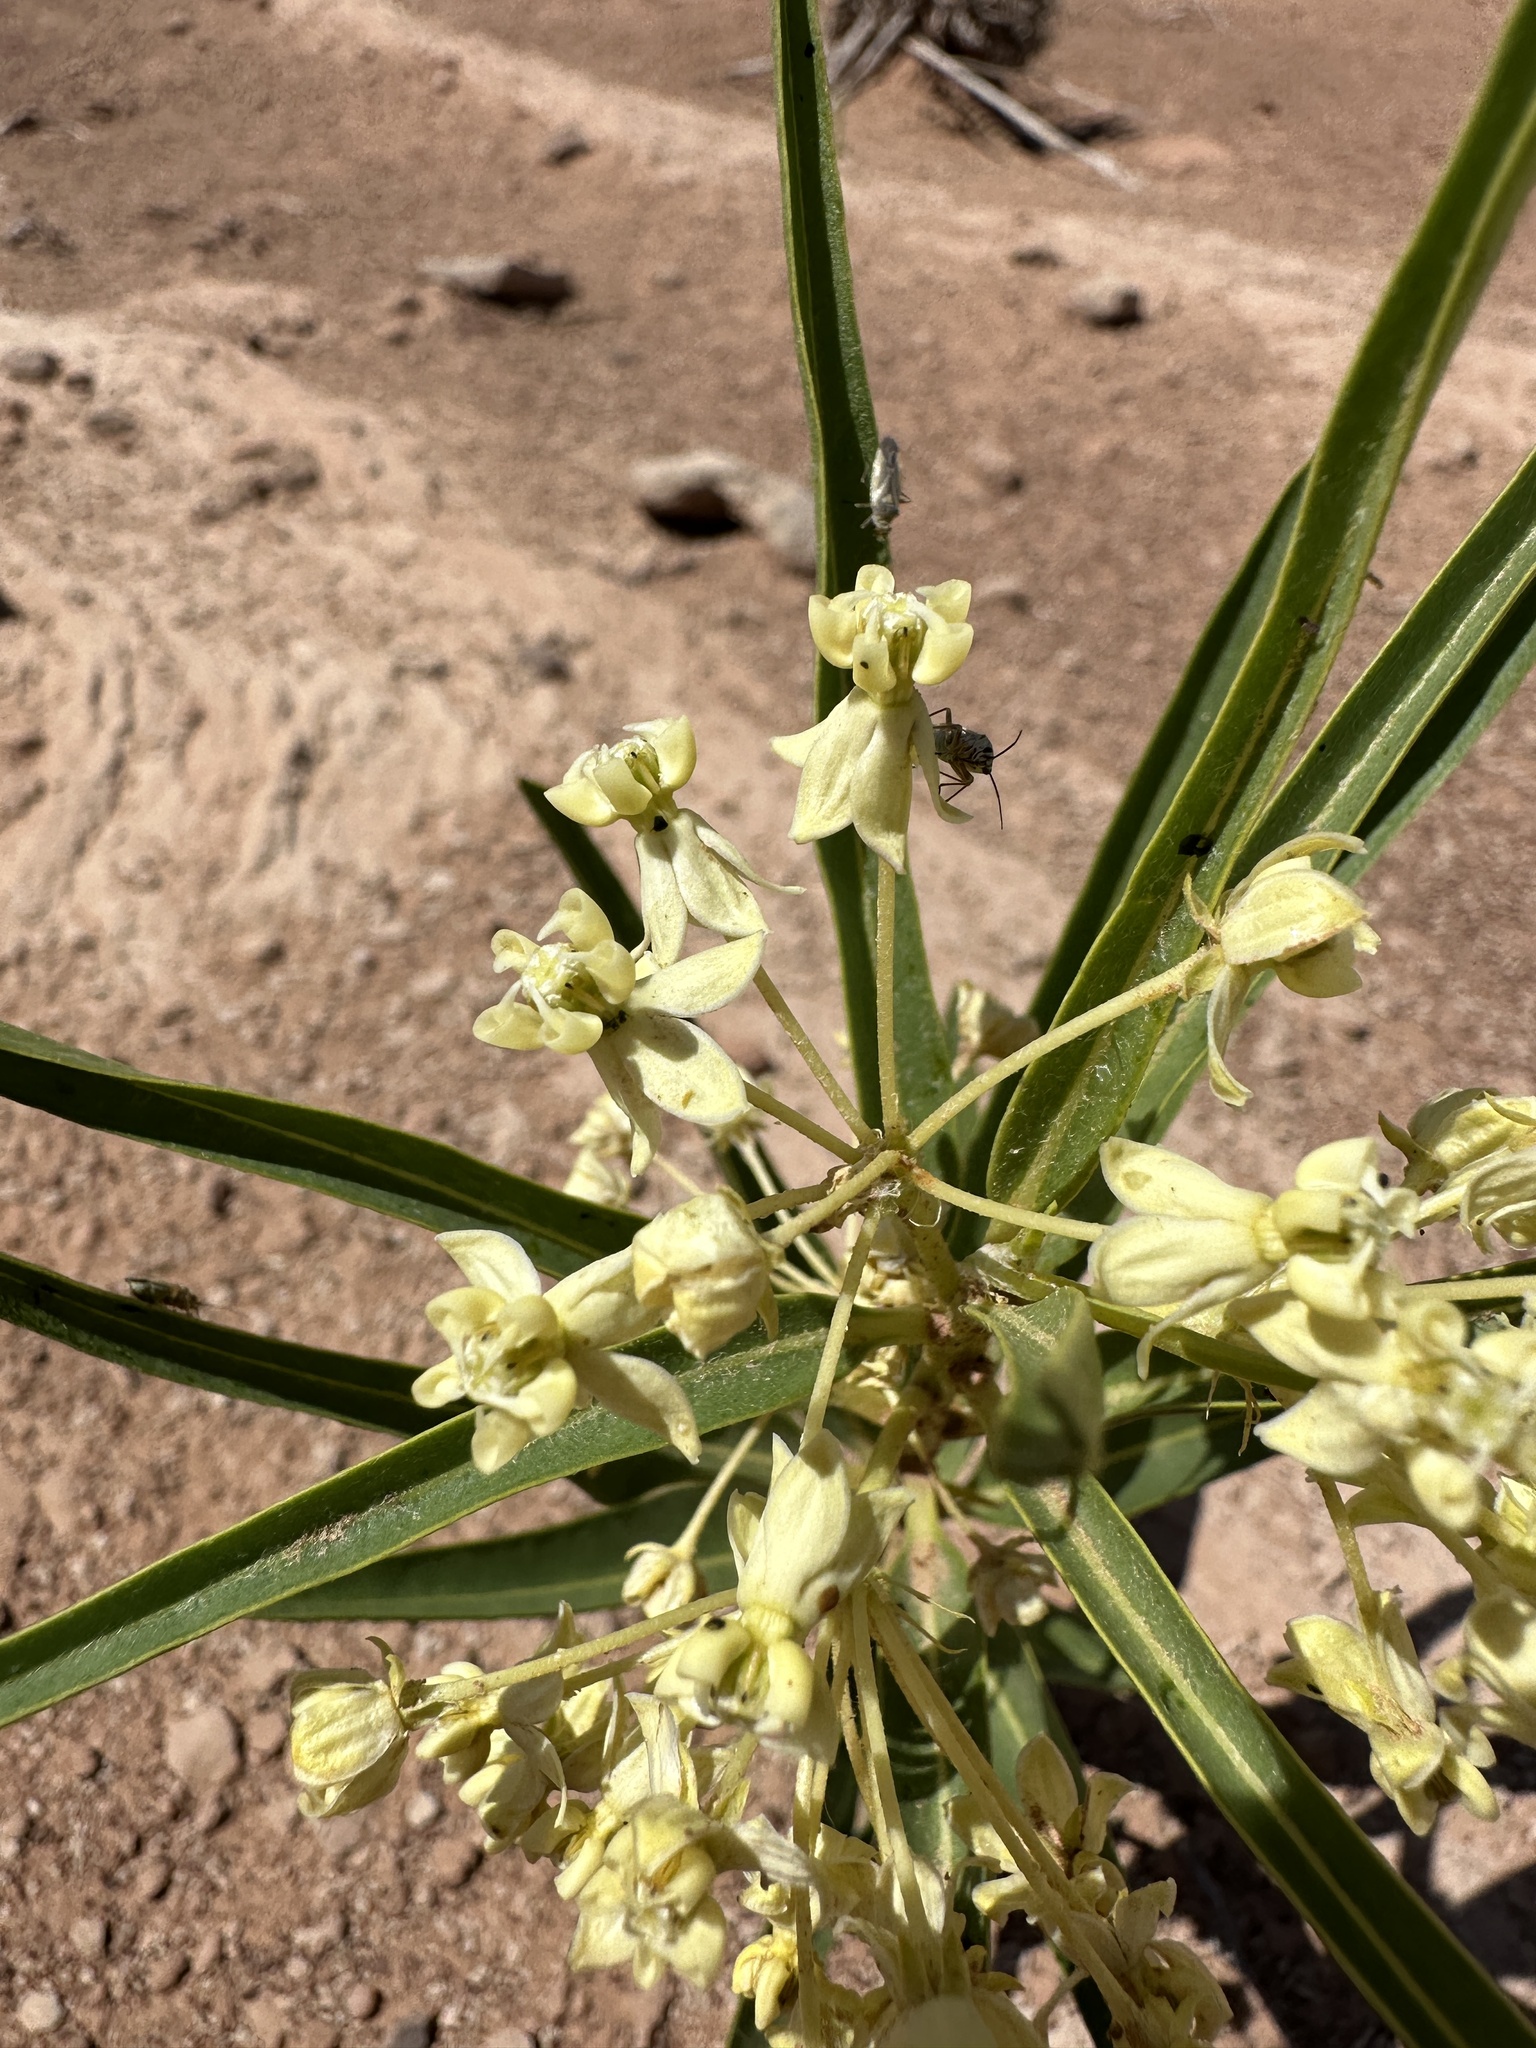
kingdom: Plantae
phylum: Tracheophyta
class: Magnoliopsida
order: Gentianales
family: Apocynaceae
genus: Asclepias
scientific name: Asclepias labriformis
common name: Labriformis milkweed
